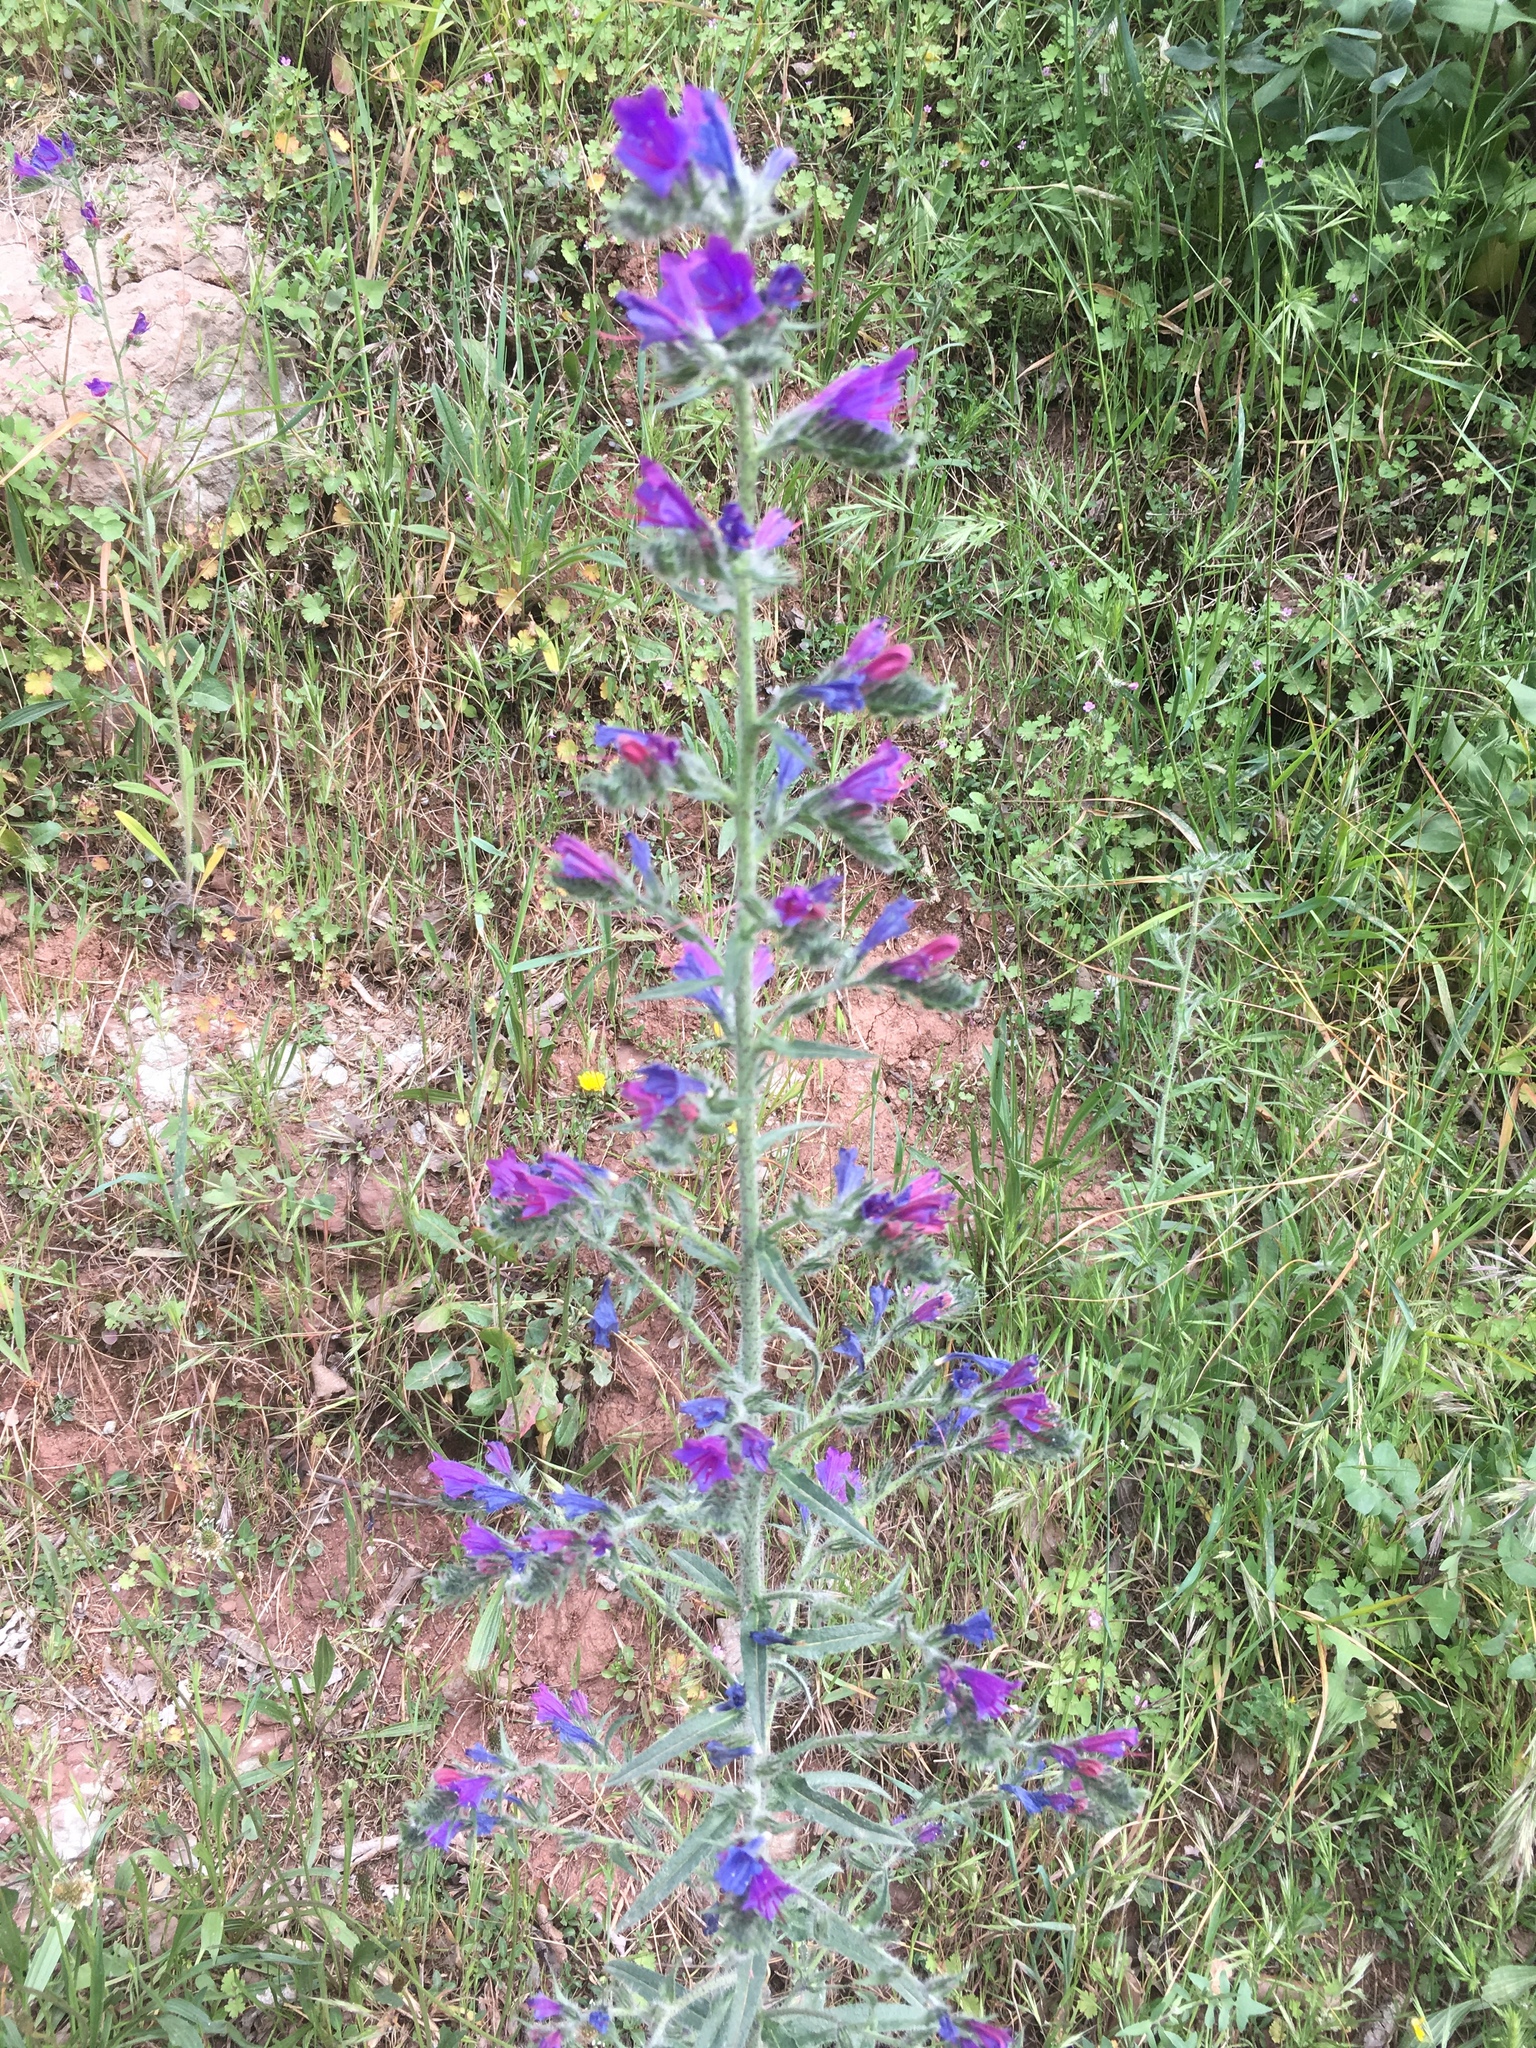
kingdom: Plantae
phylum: Tracheophyta
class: Magnoliopsida
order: Boraginales
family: Boraginaceae
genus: Echium
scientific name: Echium vulgare
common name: Common viper's bugloss
